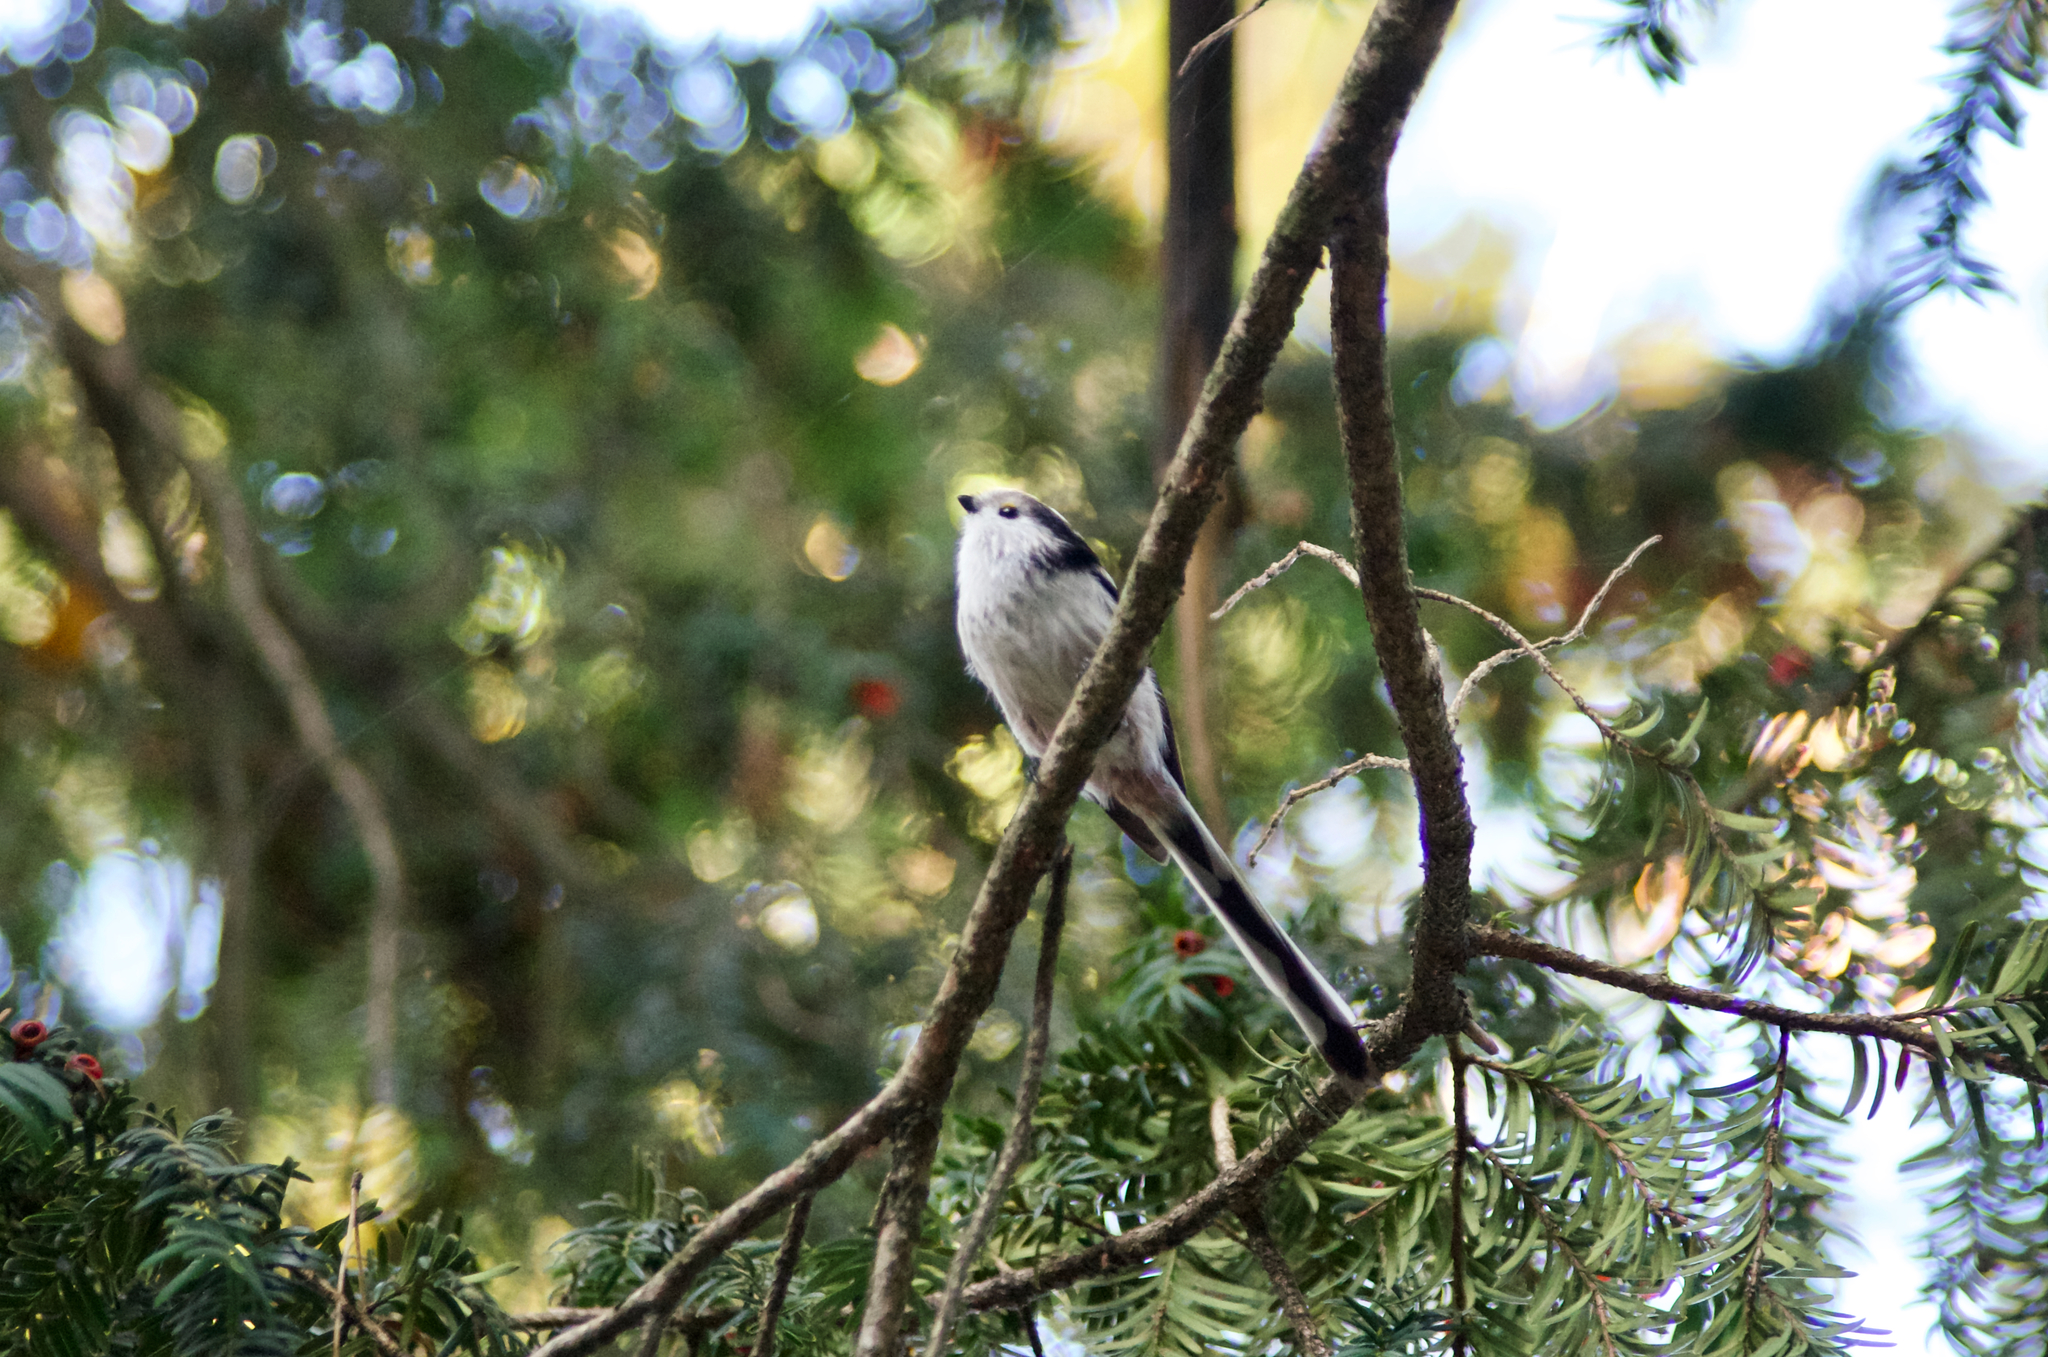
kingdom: Animalia
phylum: Chordata
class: Aves
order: Passeriformes
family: Aegithalidae
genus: Aegithalos
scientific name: Aegithalos caudatus
